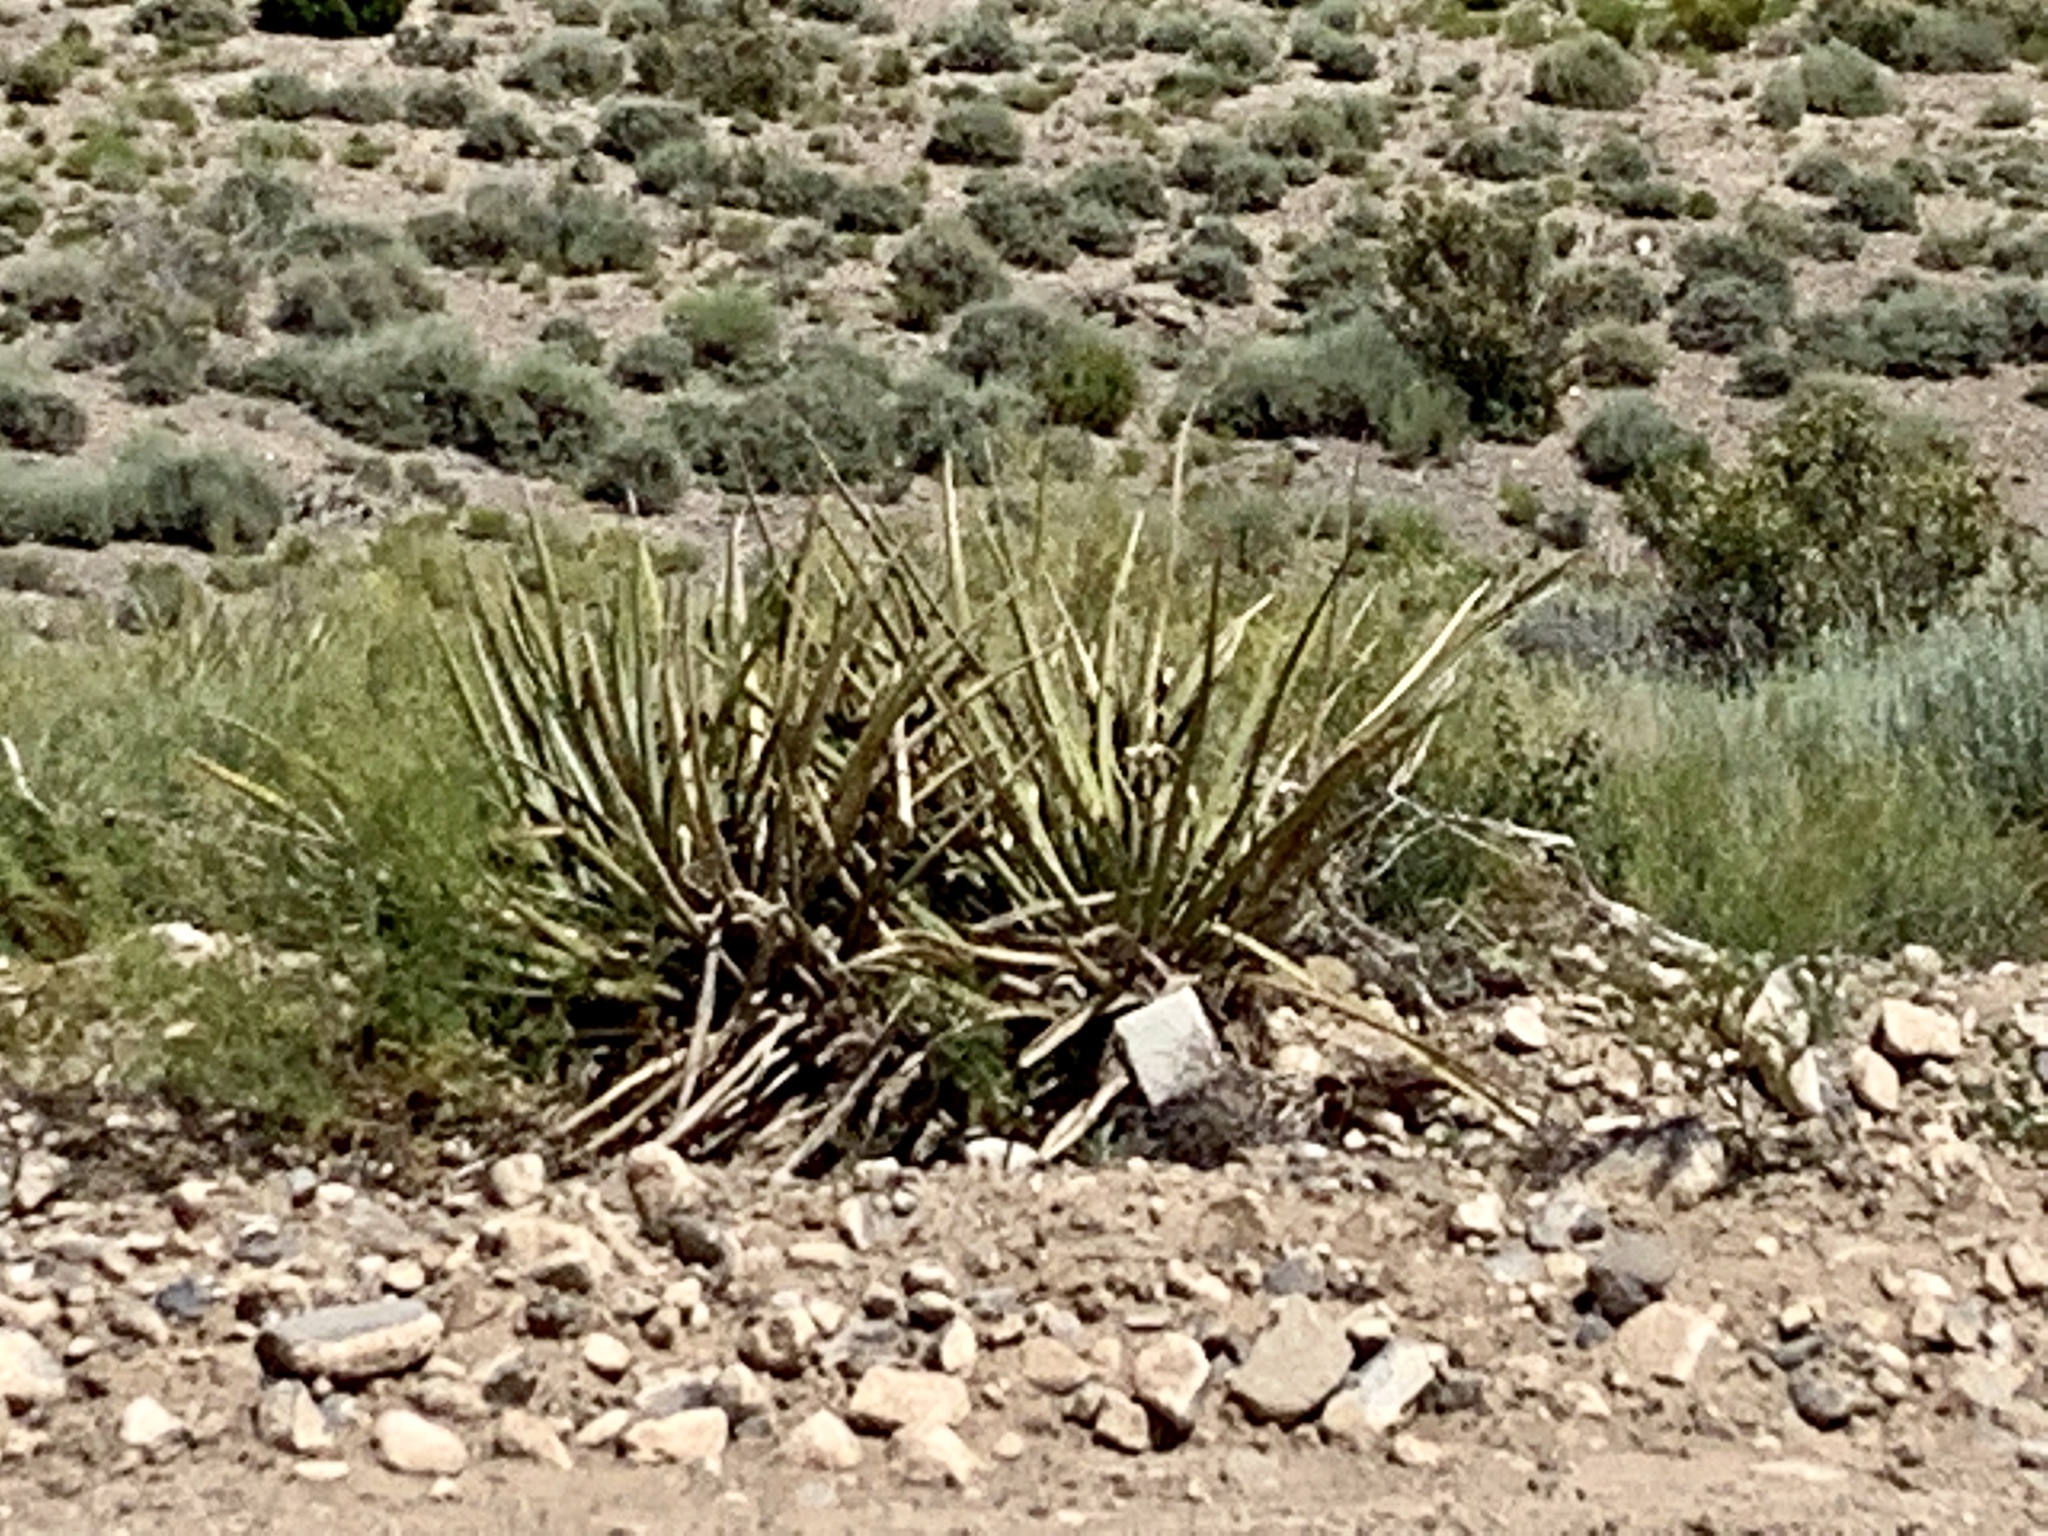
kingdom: Plantae
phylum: Tracheophyta
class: Liliopsida
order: Asparagales
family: Asparagaceae
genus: Yucca
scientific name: Yucca baccata
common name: Banana yucca
